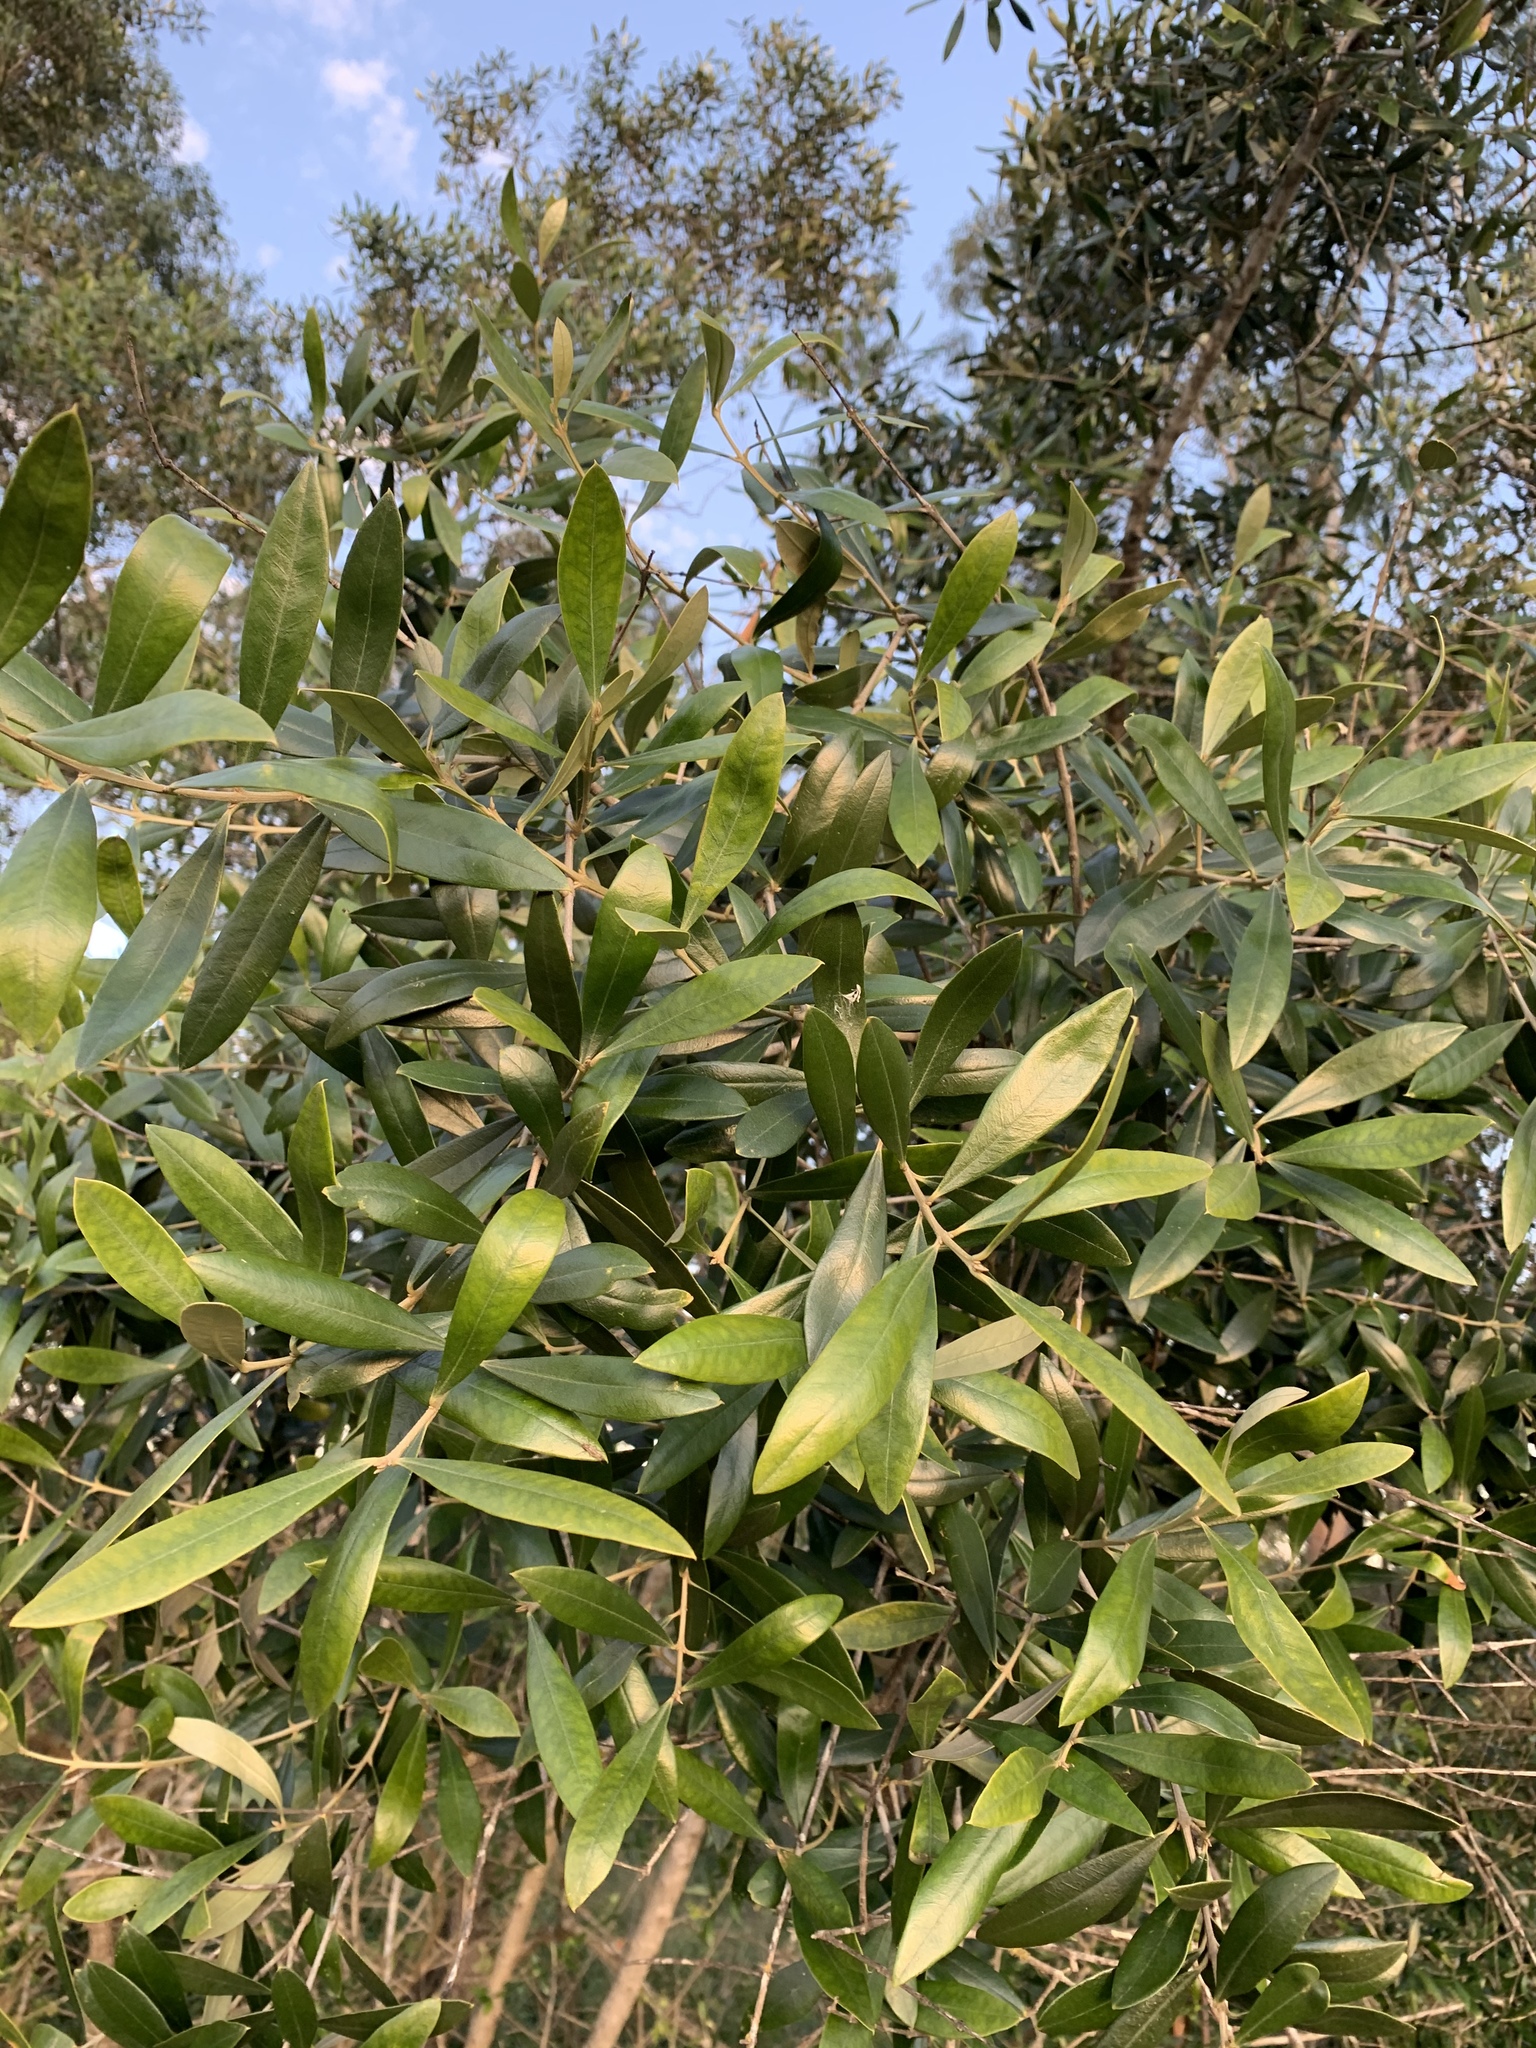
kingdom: Plantae
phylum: Tracheophyta
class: Magnoliopsida
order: Lamiales
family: Oleaceae
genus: Olea
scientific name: Olea europaea
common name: Olive
